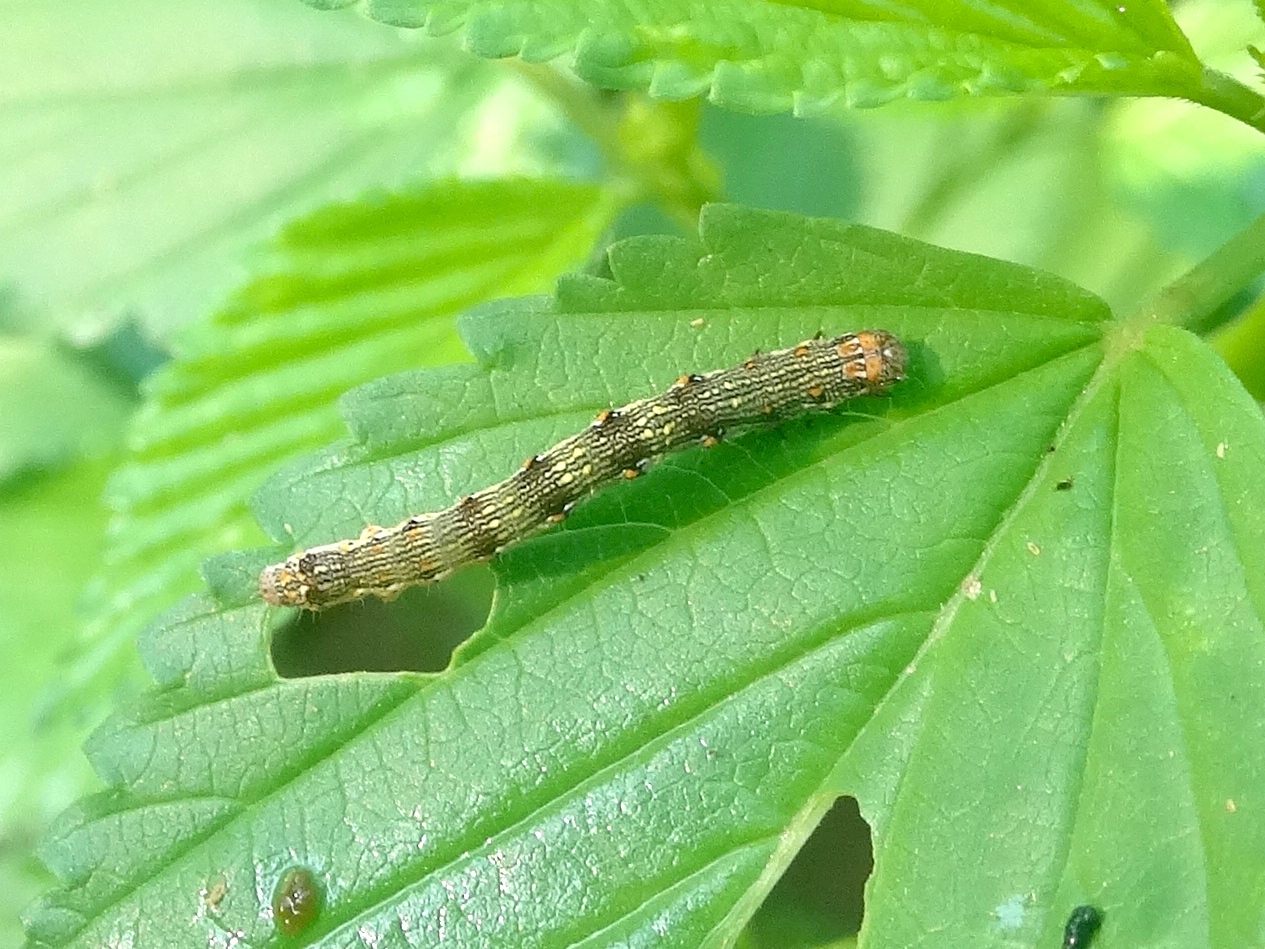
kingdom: Animalia
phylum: Arthropoda
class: Insecta
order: Lepidoptera
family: Geometridae
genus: Ennominae
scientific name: Ennominae
